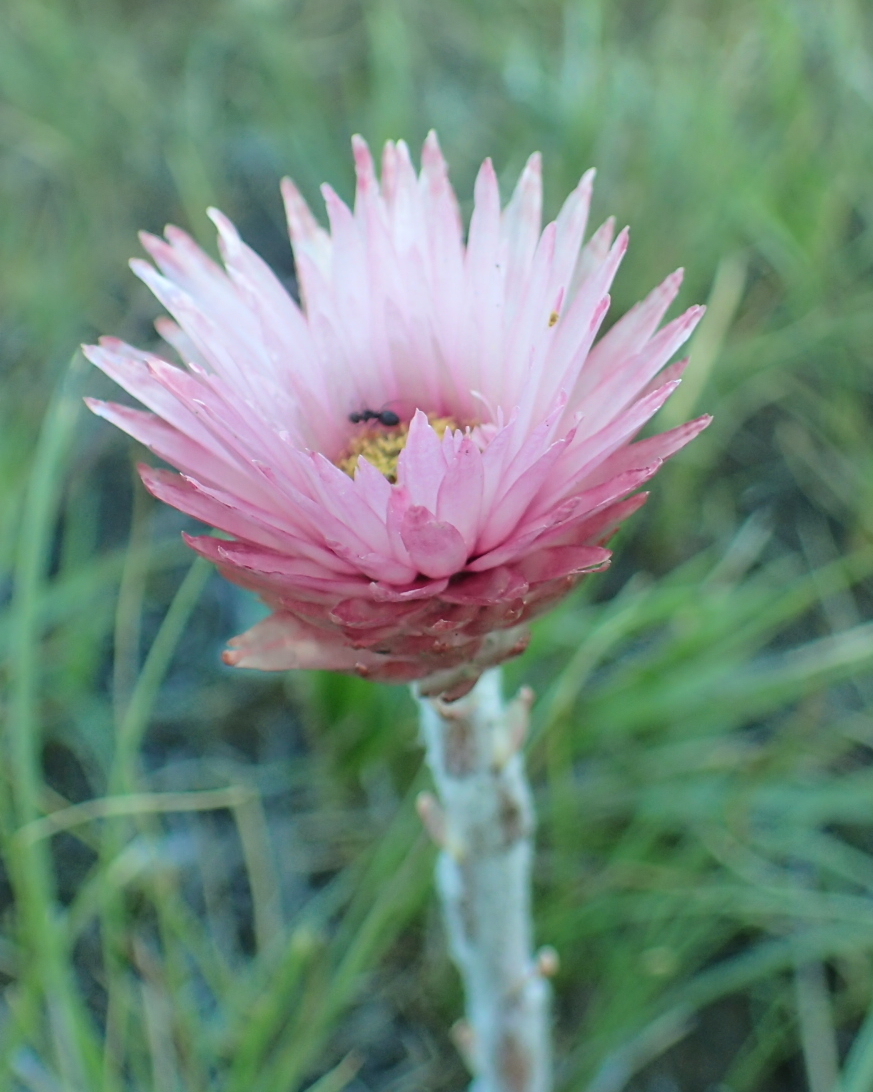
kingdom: Plantae
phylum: Tracheophyta
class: Magnoliopsida
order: Asterales
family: Asteraceae
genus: Helichrysum
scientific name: Helichrysum ecklonis
